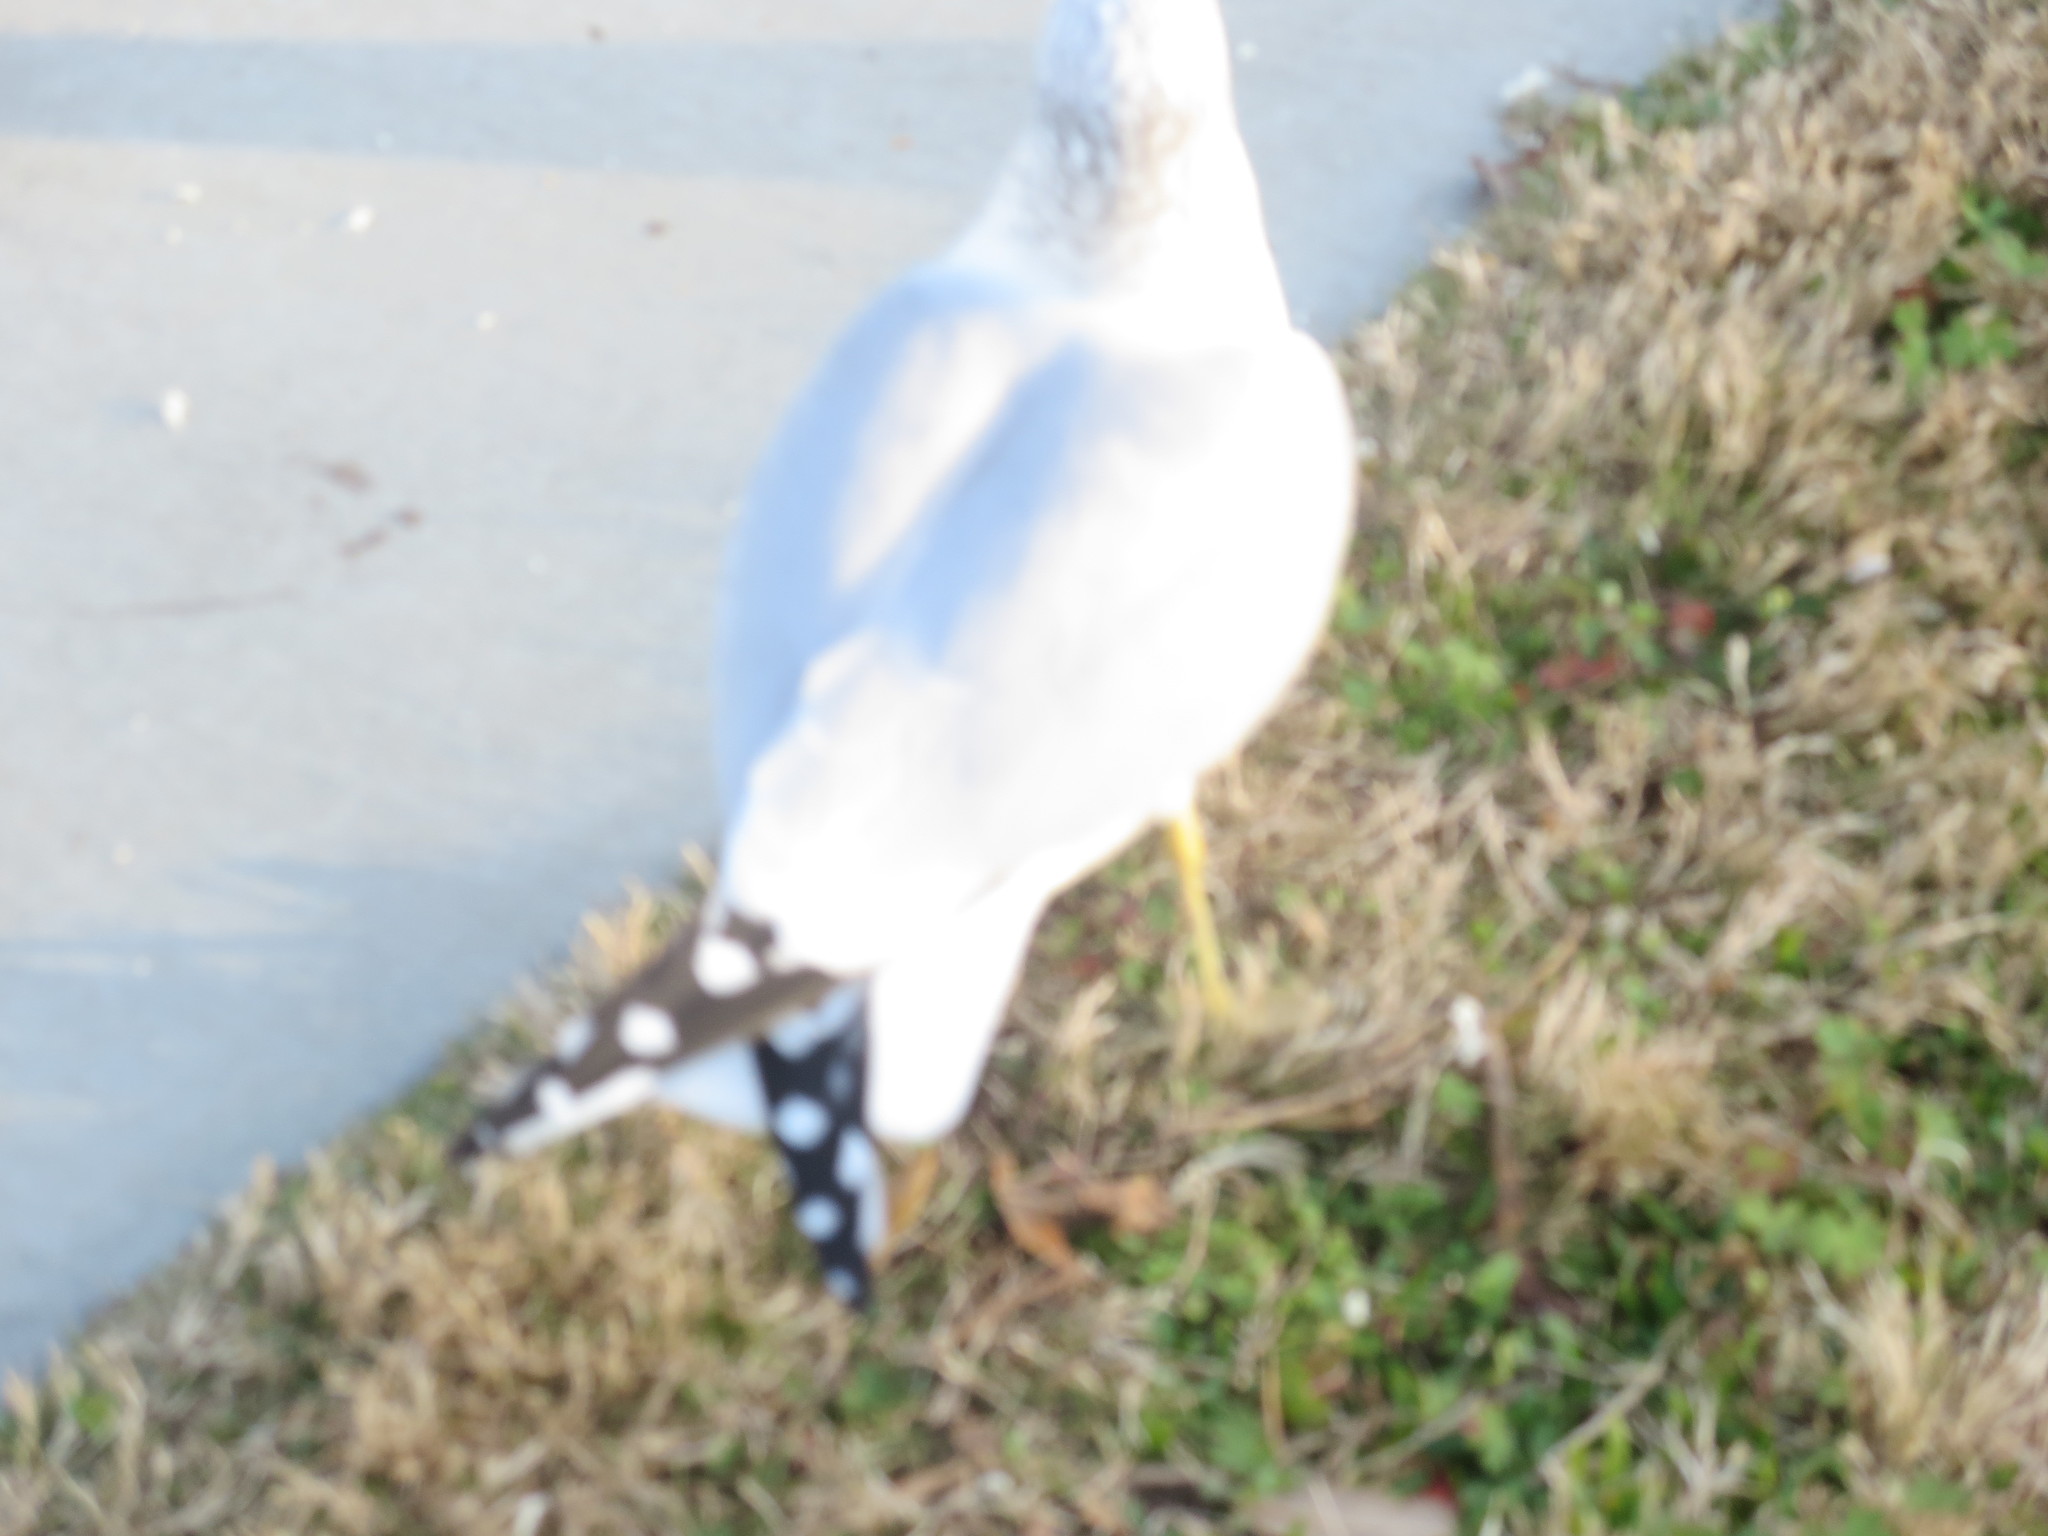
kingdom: Animalia
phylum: Chordata
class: Aves
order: Charadriiformes
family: Laridae
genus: Larus
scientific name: Larus delawarensis
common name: Ring-billed gull
